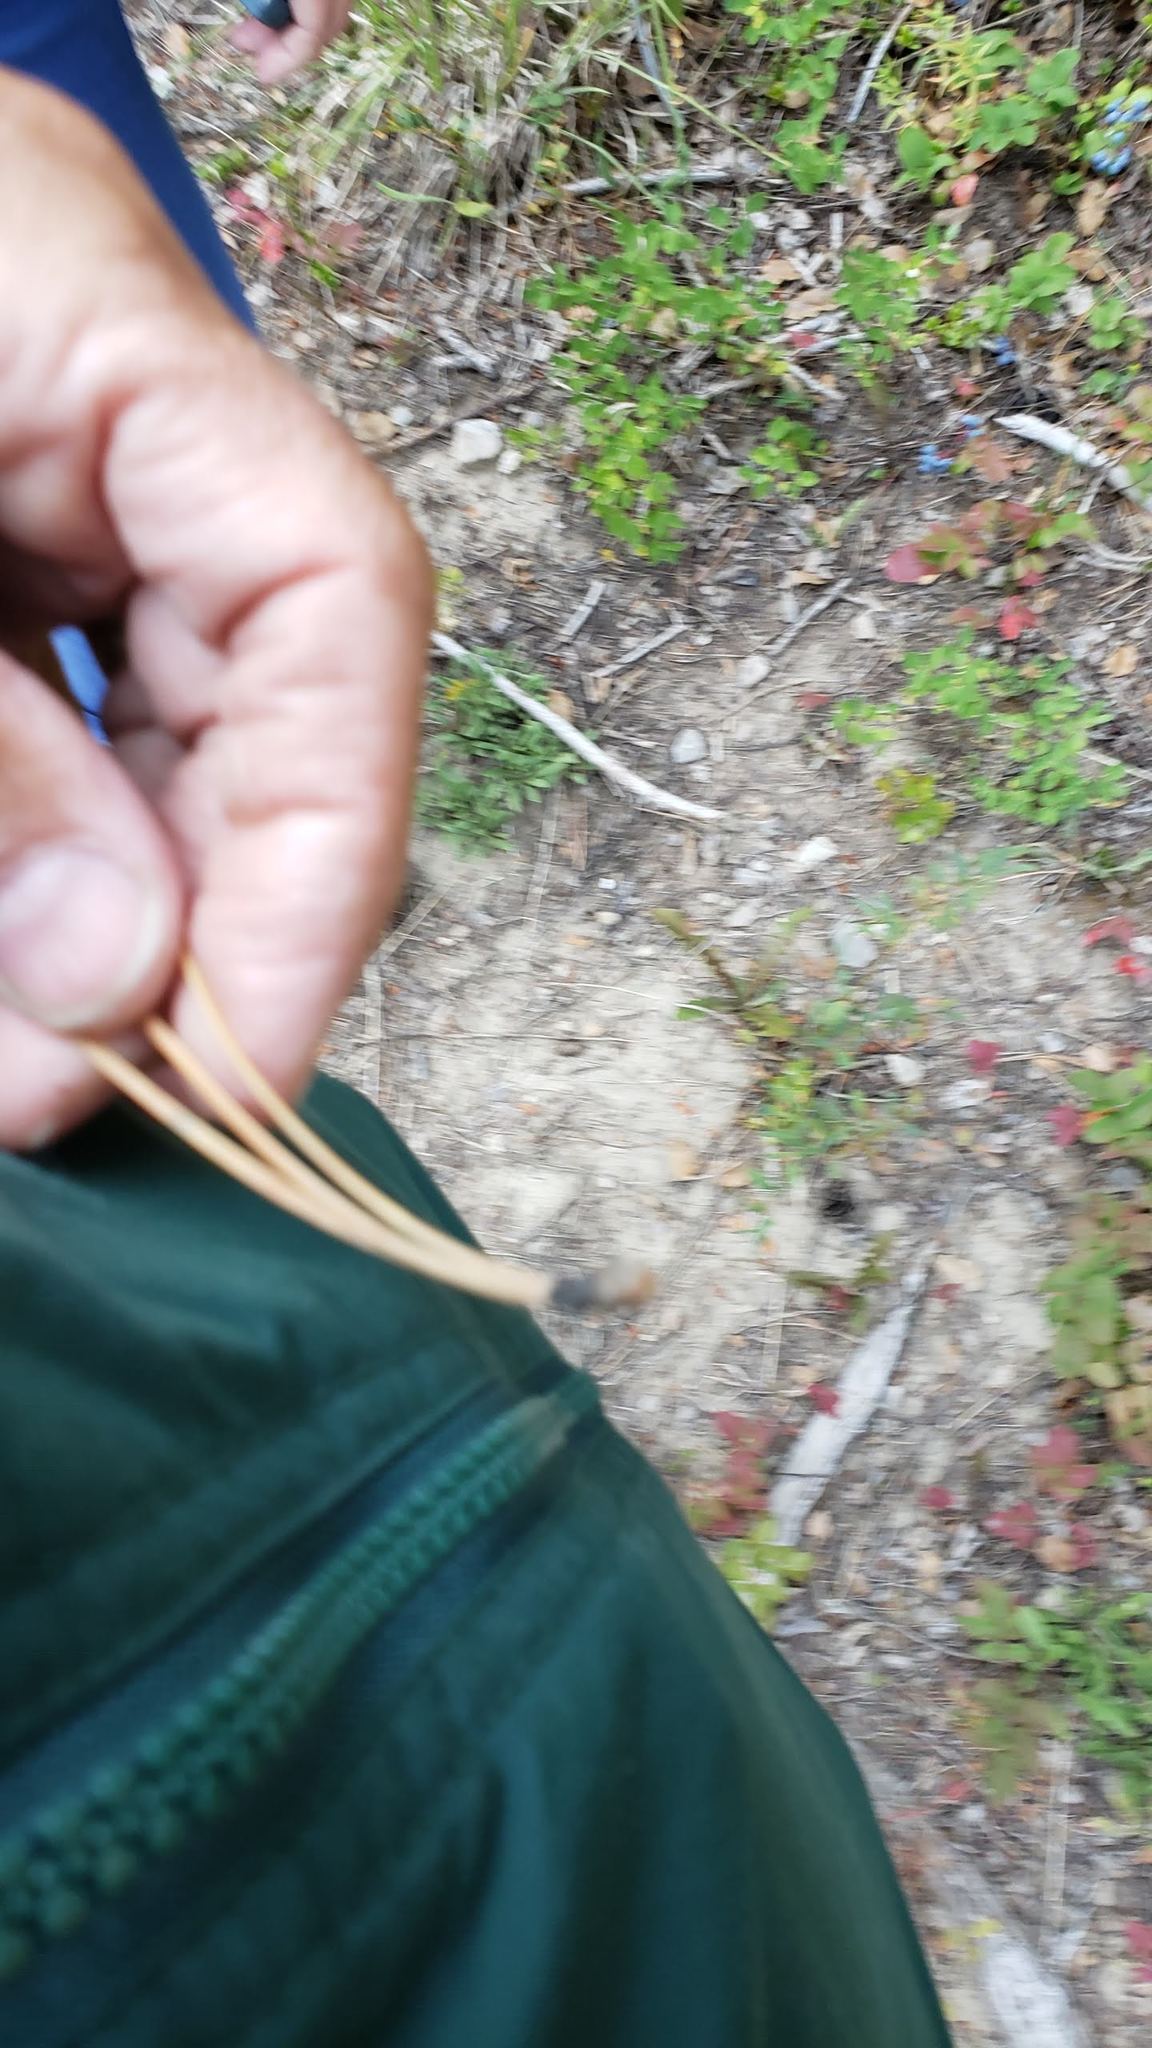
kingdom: Plantae
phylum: Tracheophyta
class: Pinopsida
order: Pinales
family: Pinaceae
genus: Pinus
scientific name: Pinus ponderosa
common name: Western yellow-pine
